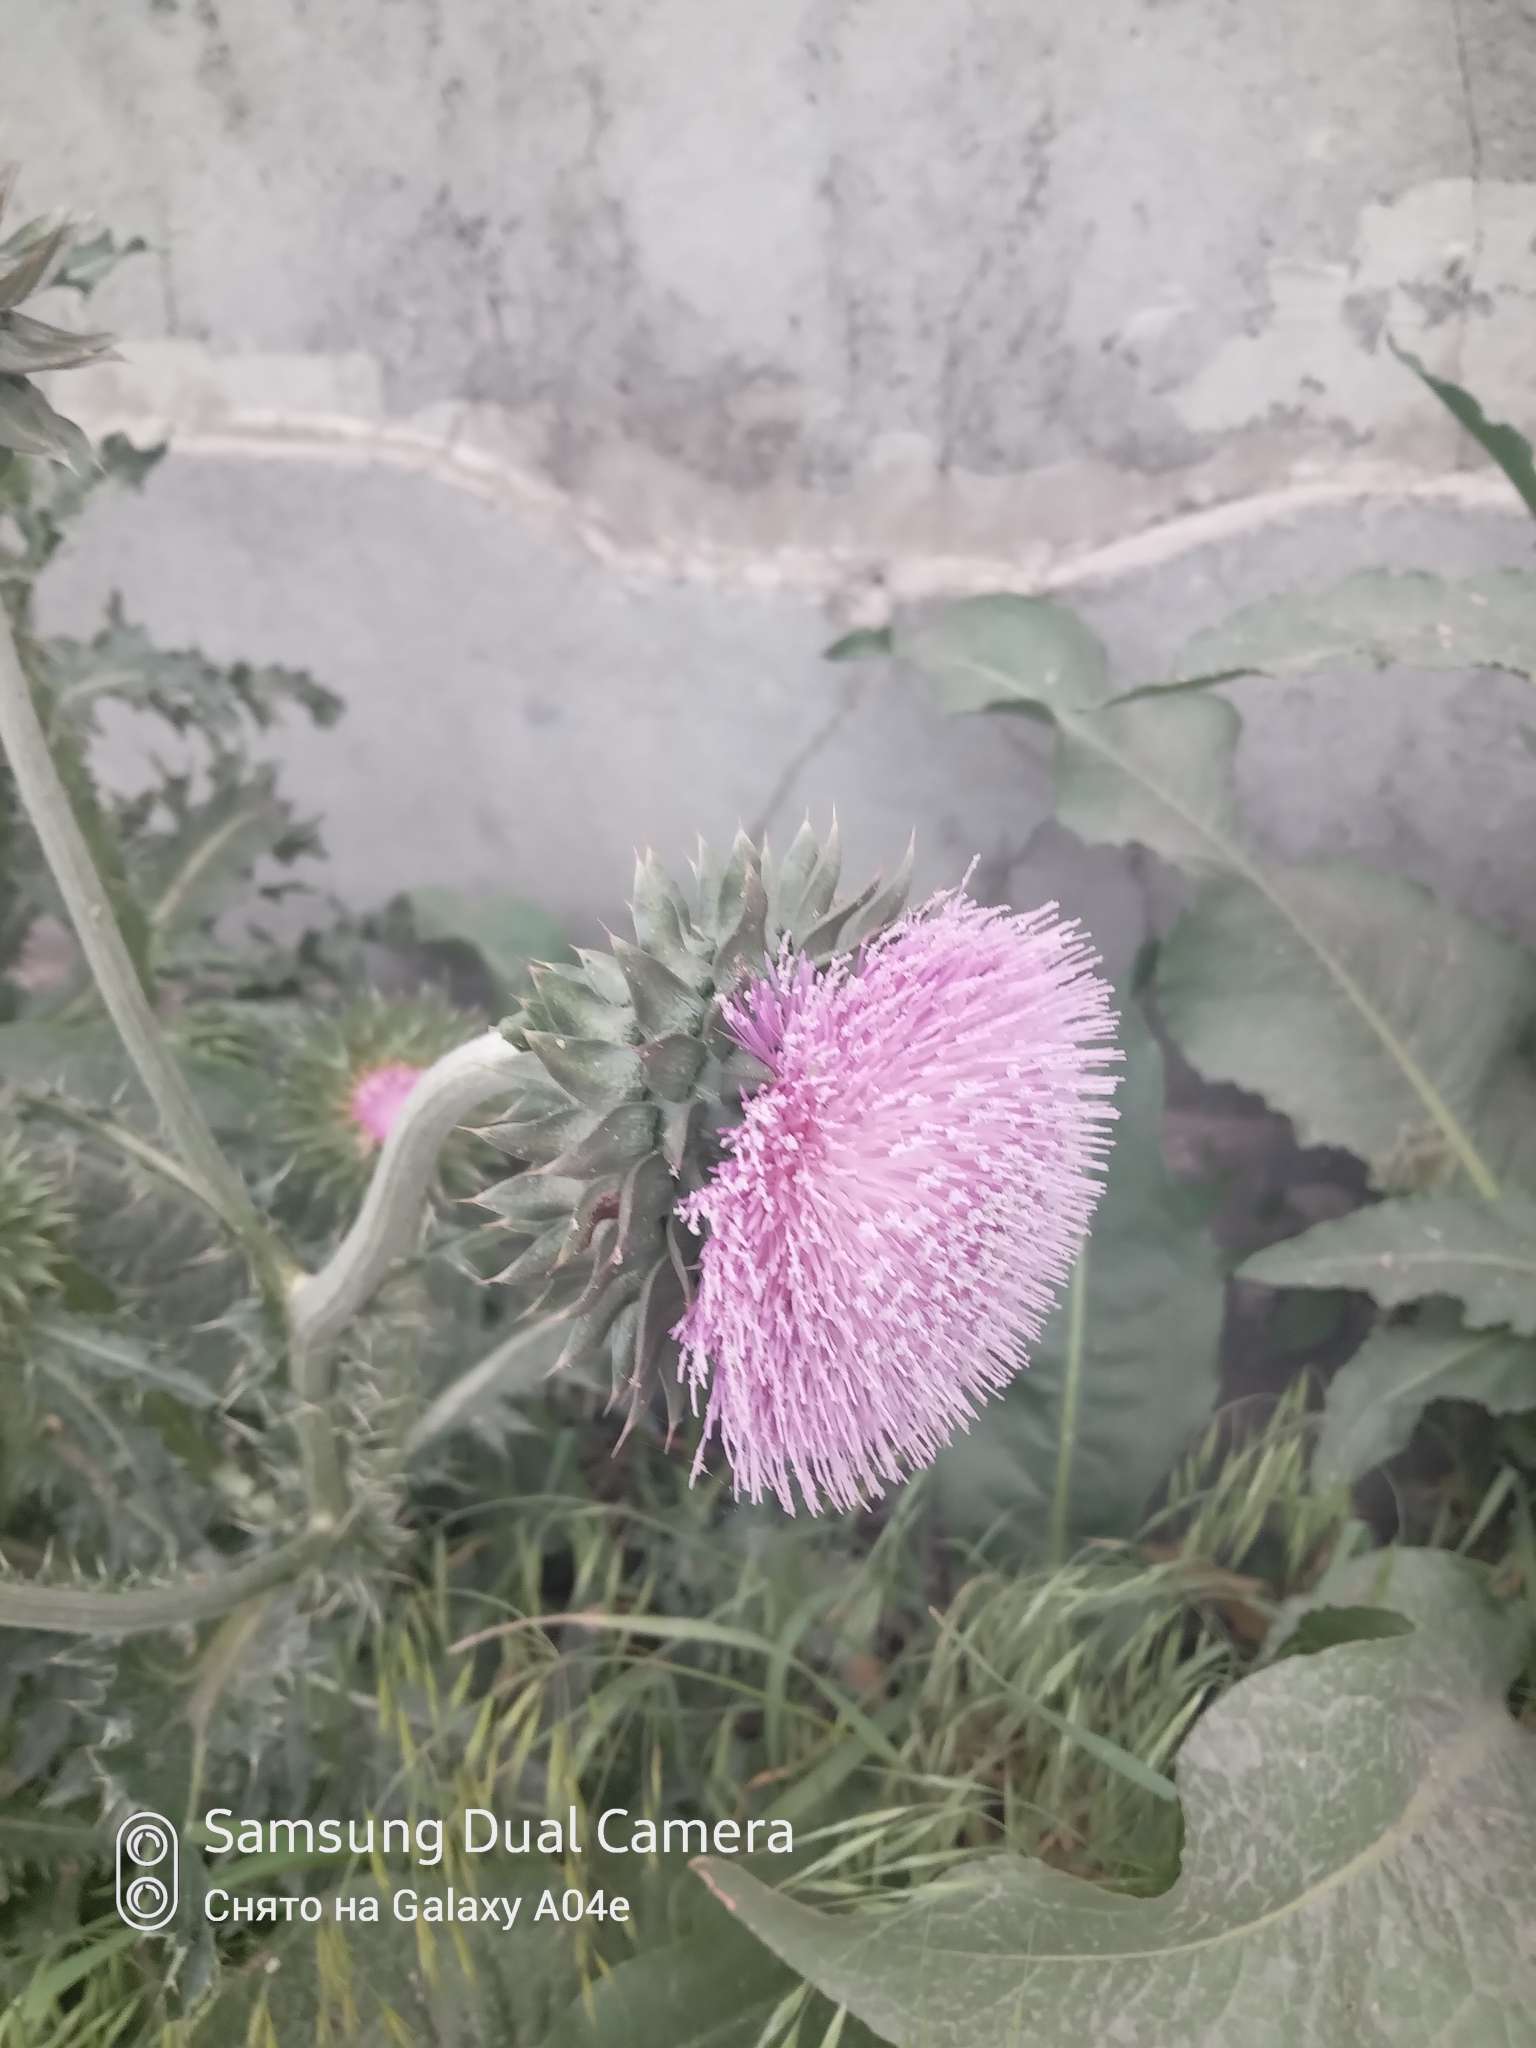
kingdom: Plantae
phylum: Tracheophyta
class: Magnoliopsida
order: Asterales
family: Asteraceae
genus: Carduus
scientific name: Carduus nutans
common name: Musk thistle
